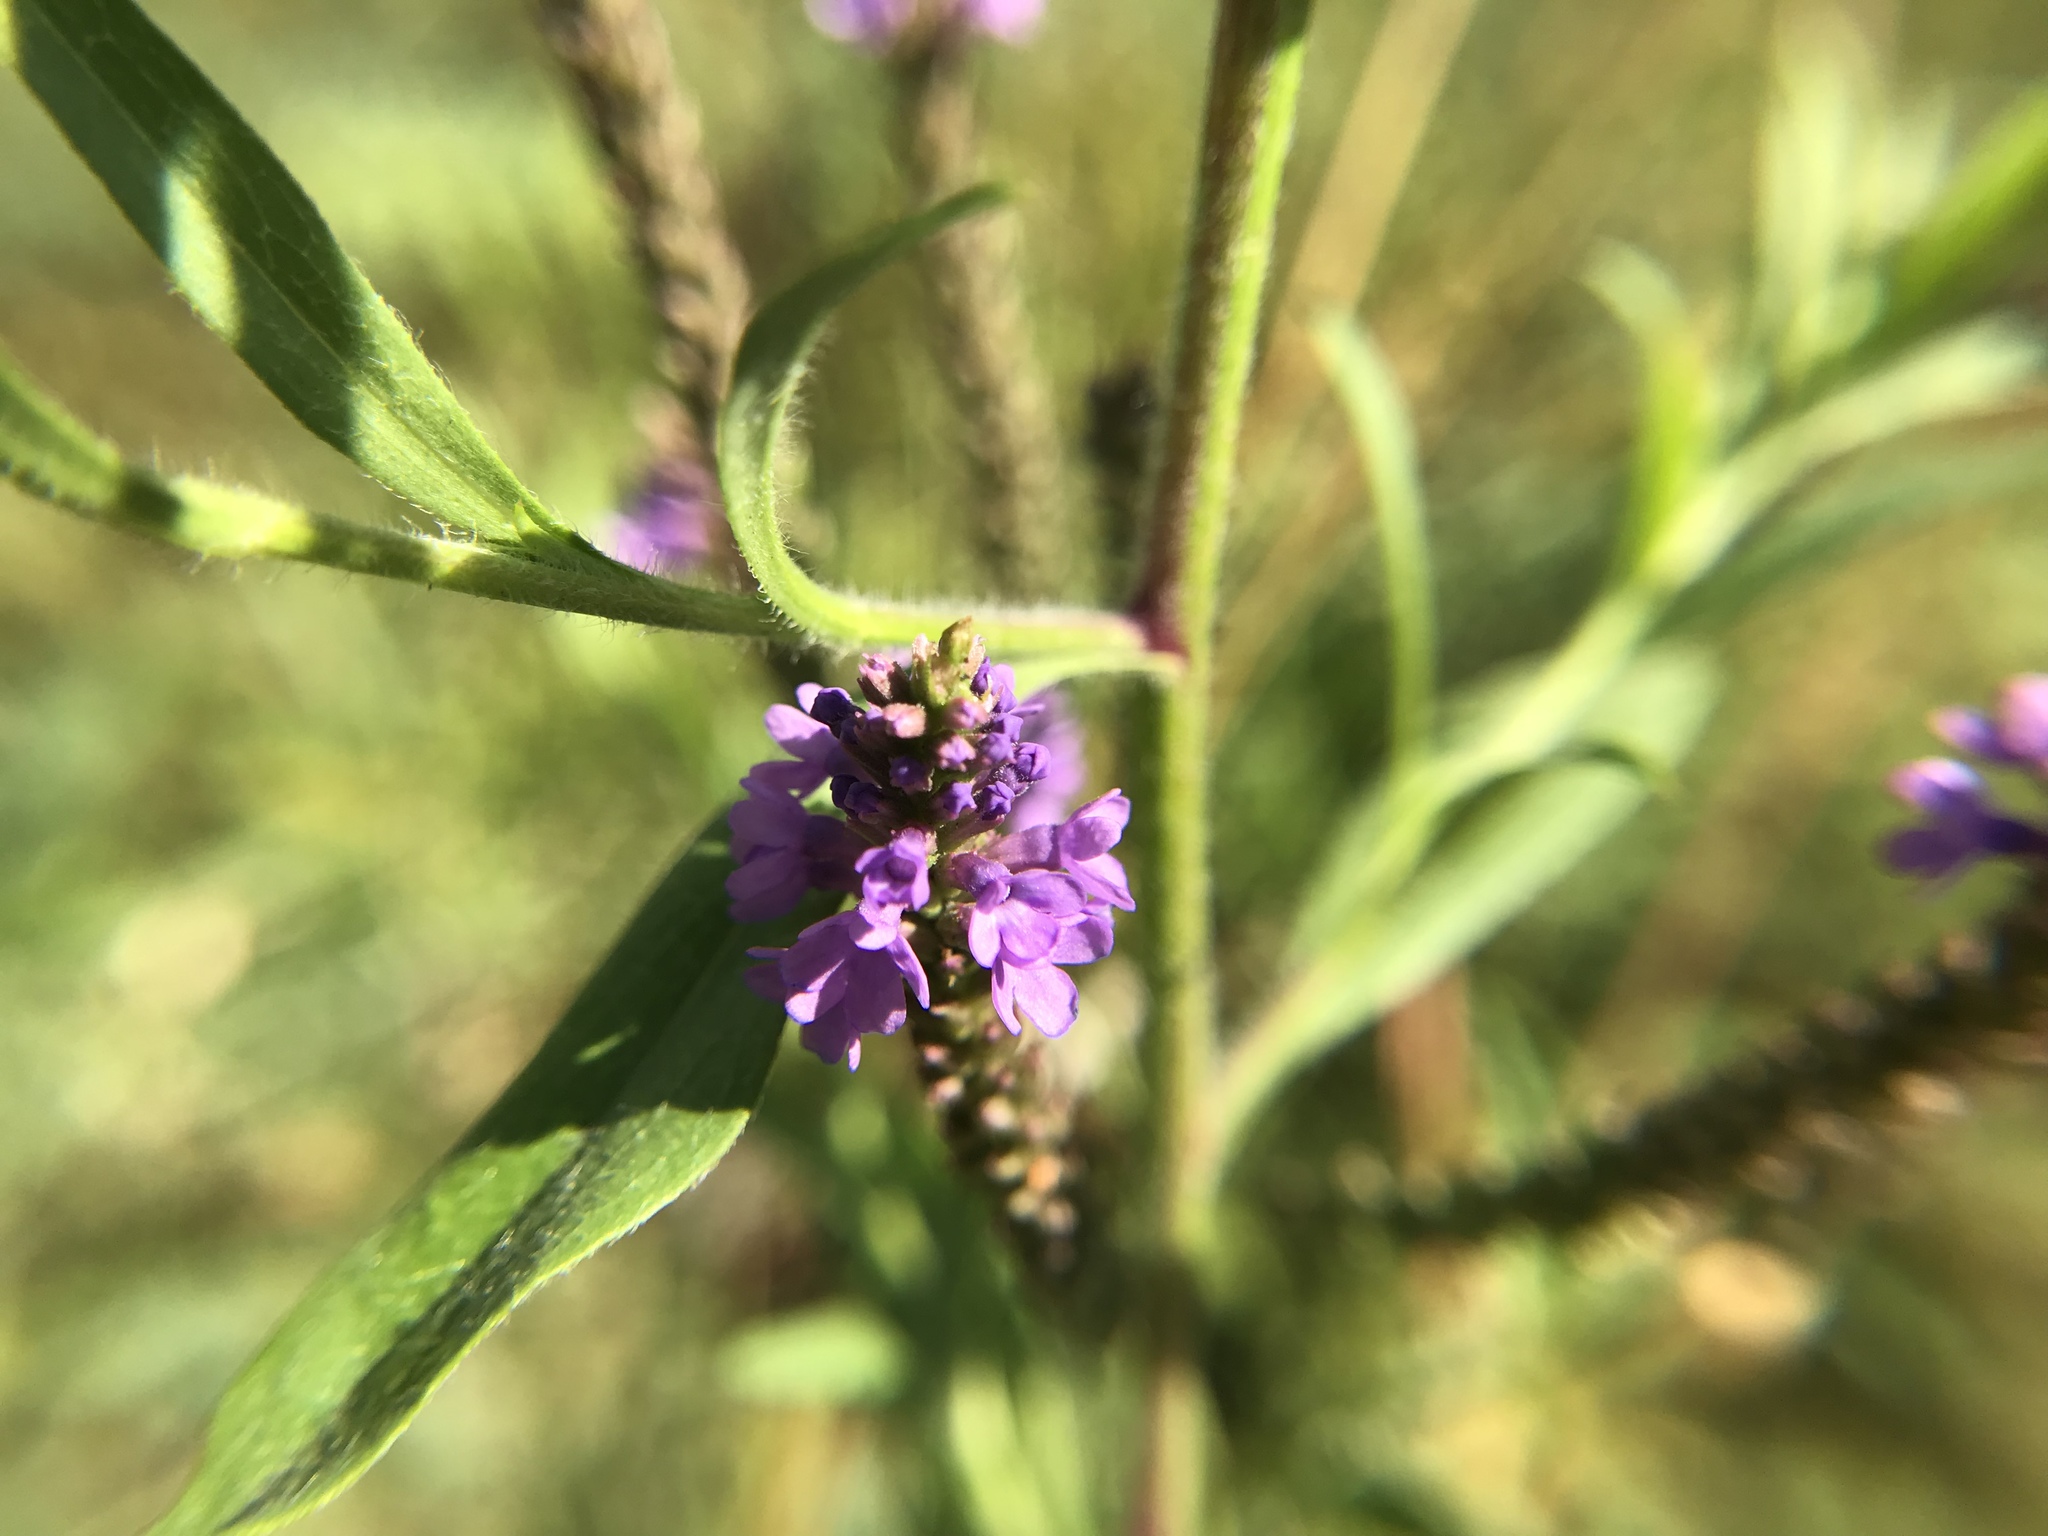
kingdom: Plantae
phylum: Tracheophyta
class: Magnoliopsida
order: Lamiales
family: Verbenaceae
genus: Verbena
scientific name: Verbena hastata
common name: American blue vervain
